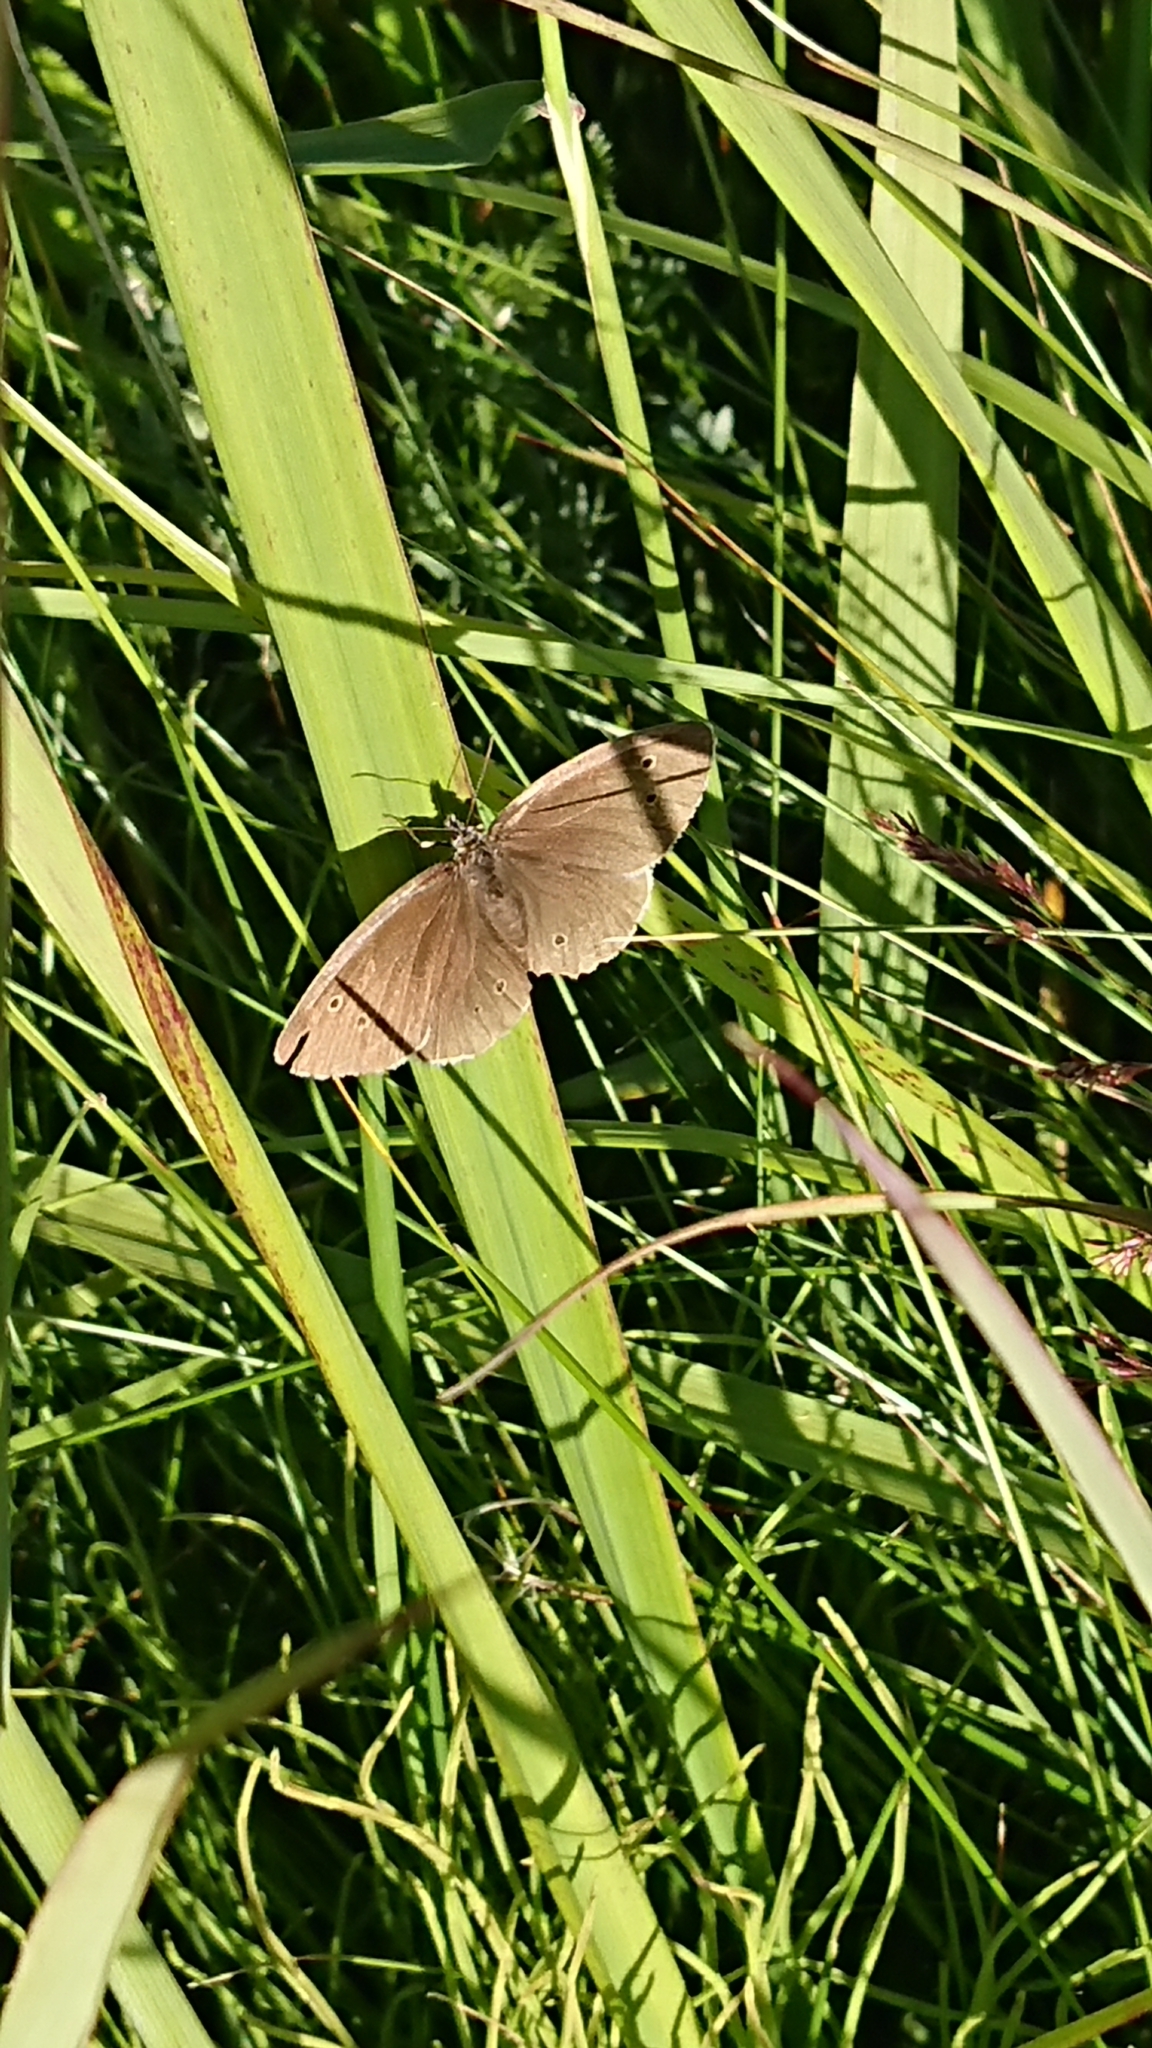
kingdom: Animalia
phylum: Arthropoda
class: Insecta
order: Lepidoptera
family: Nymphalidae
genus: Aphantopus
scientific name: Aphantopus hyperantus
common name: Ringlet
